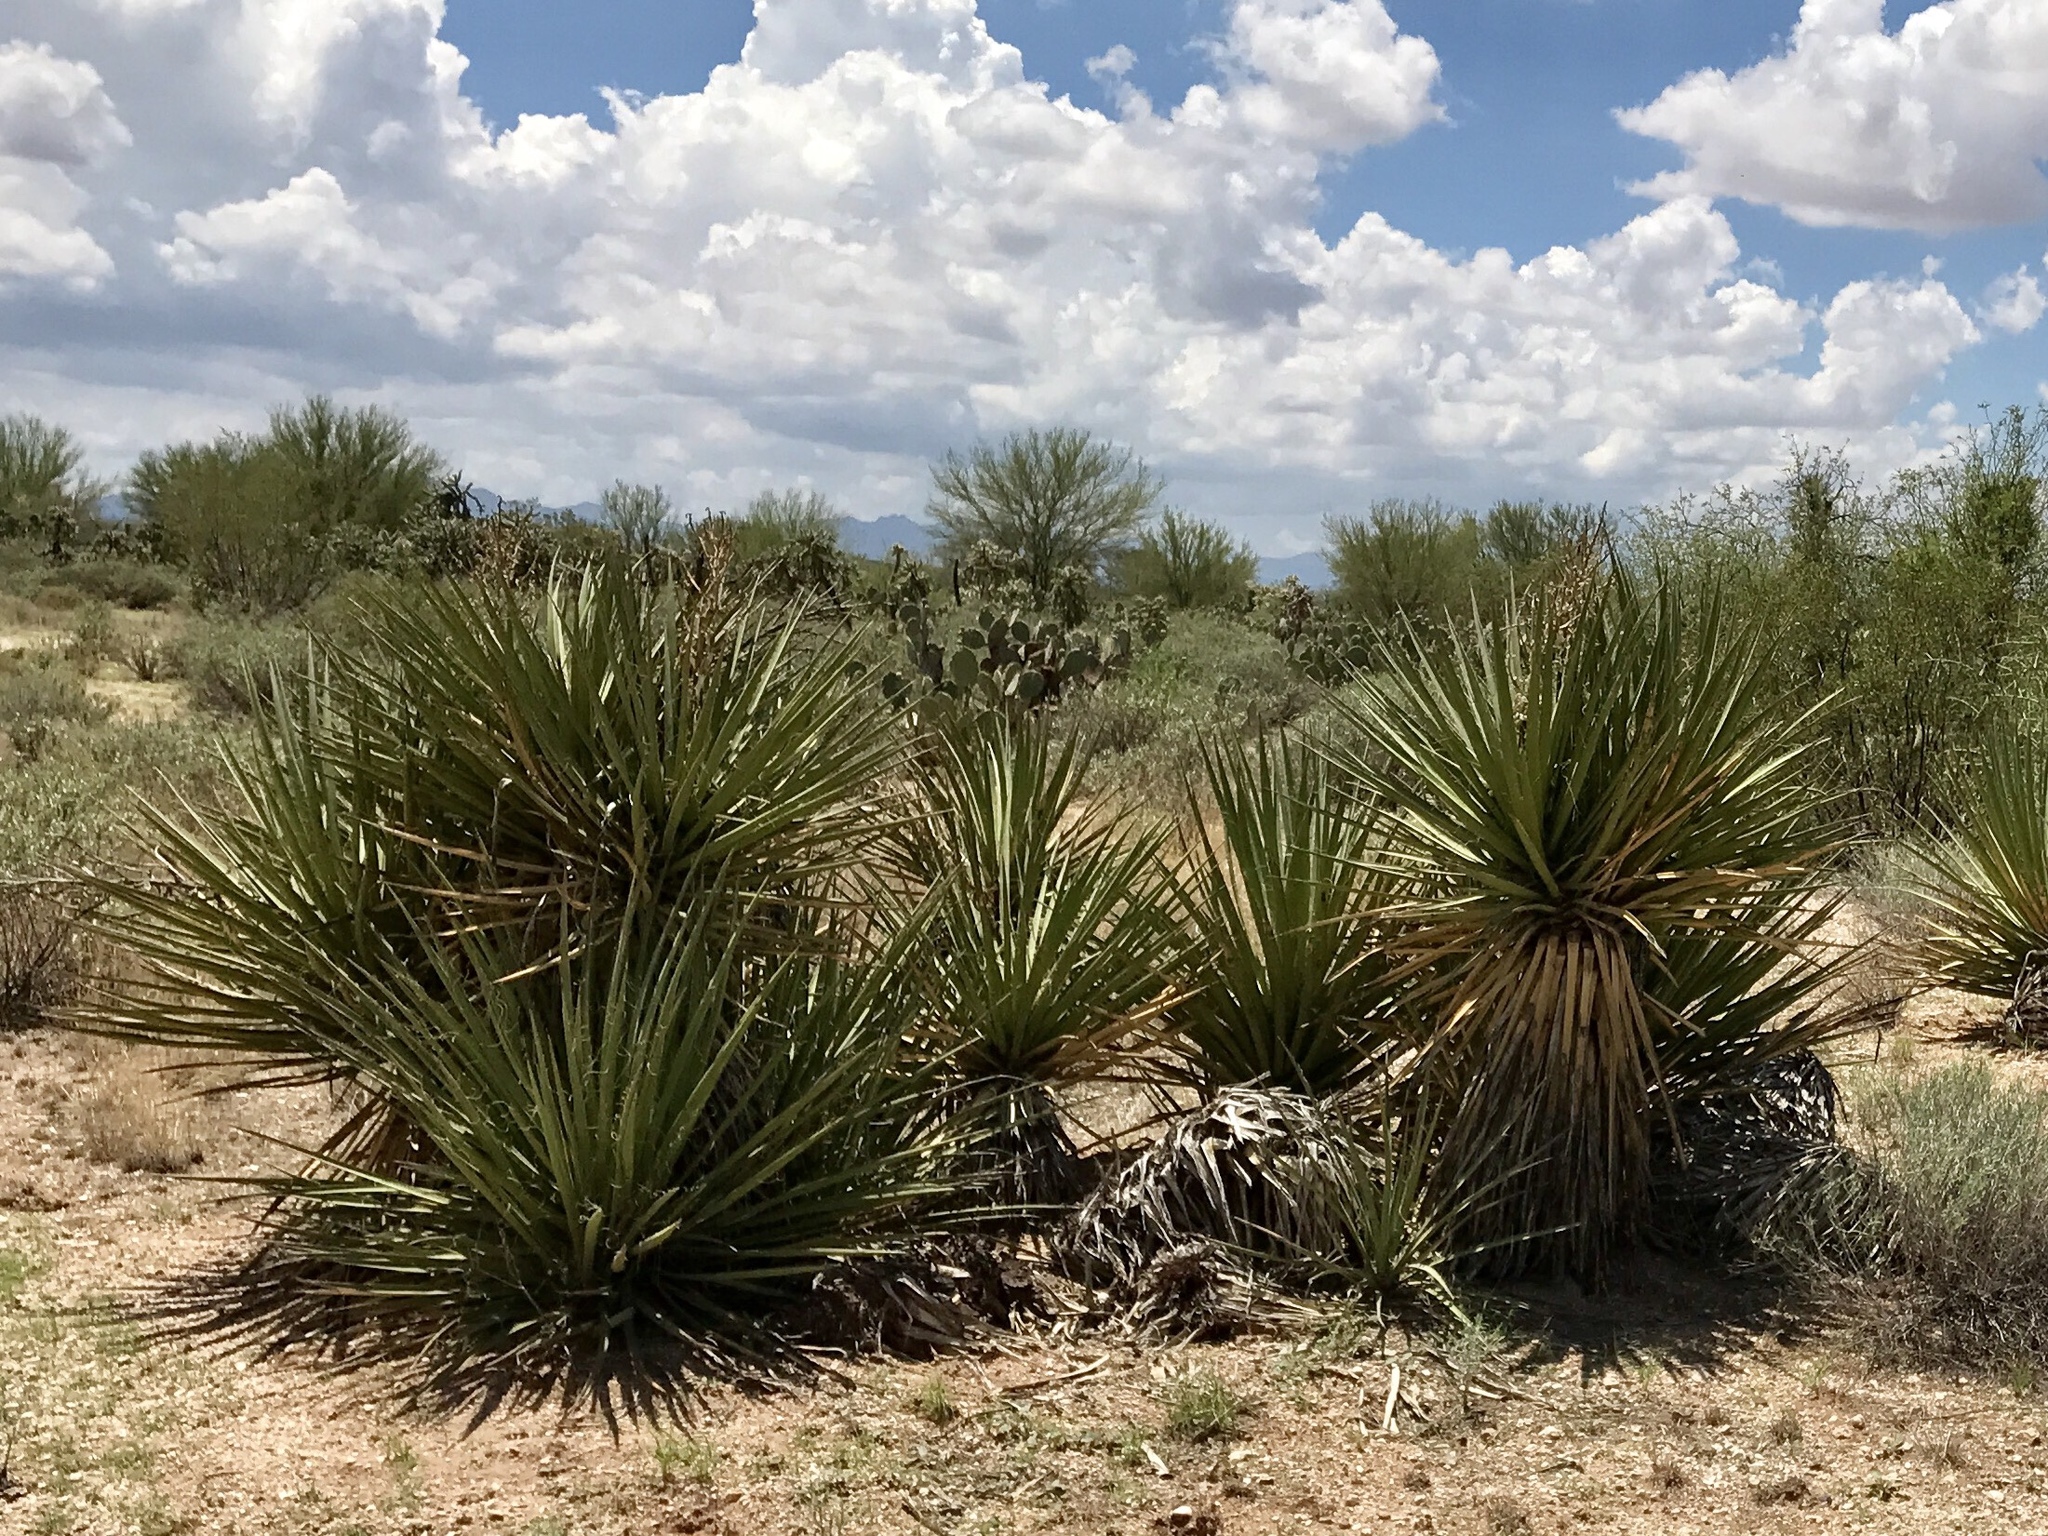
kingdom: Plantae
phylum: Tracheophyta
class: Liliopsida
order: Asparagales
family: Asparagaceae
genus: Yucca
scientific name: Yucca baccata
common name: Banana yucca
